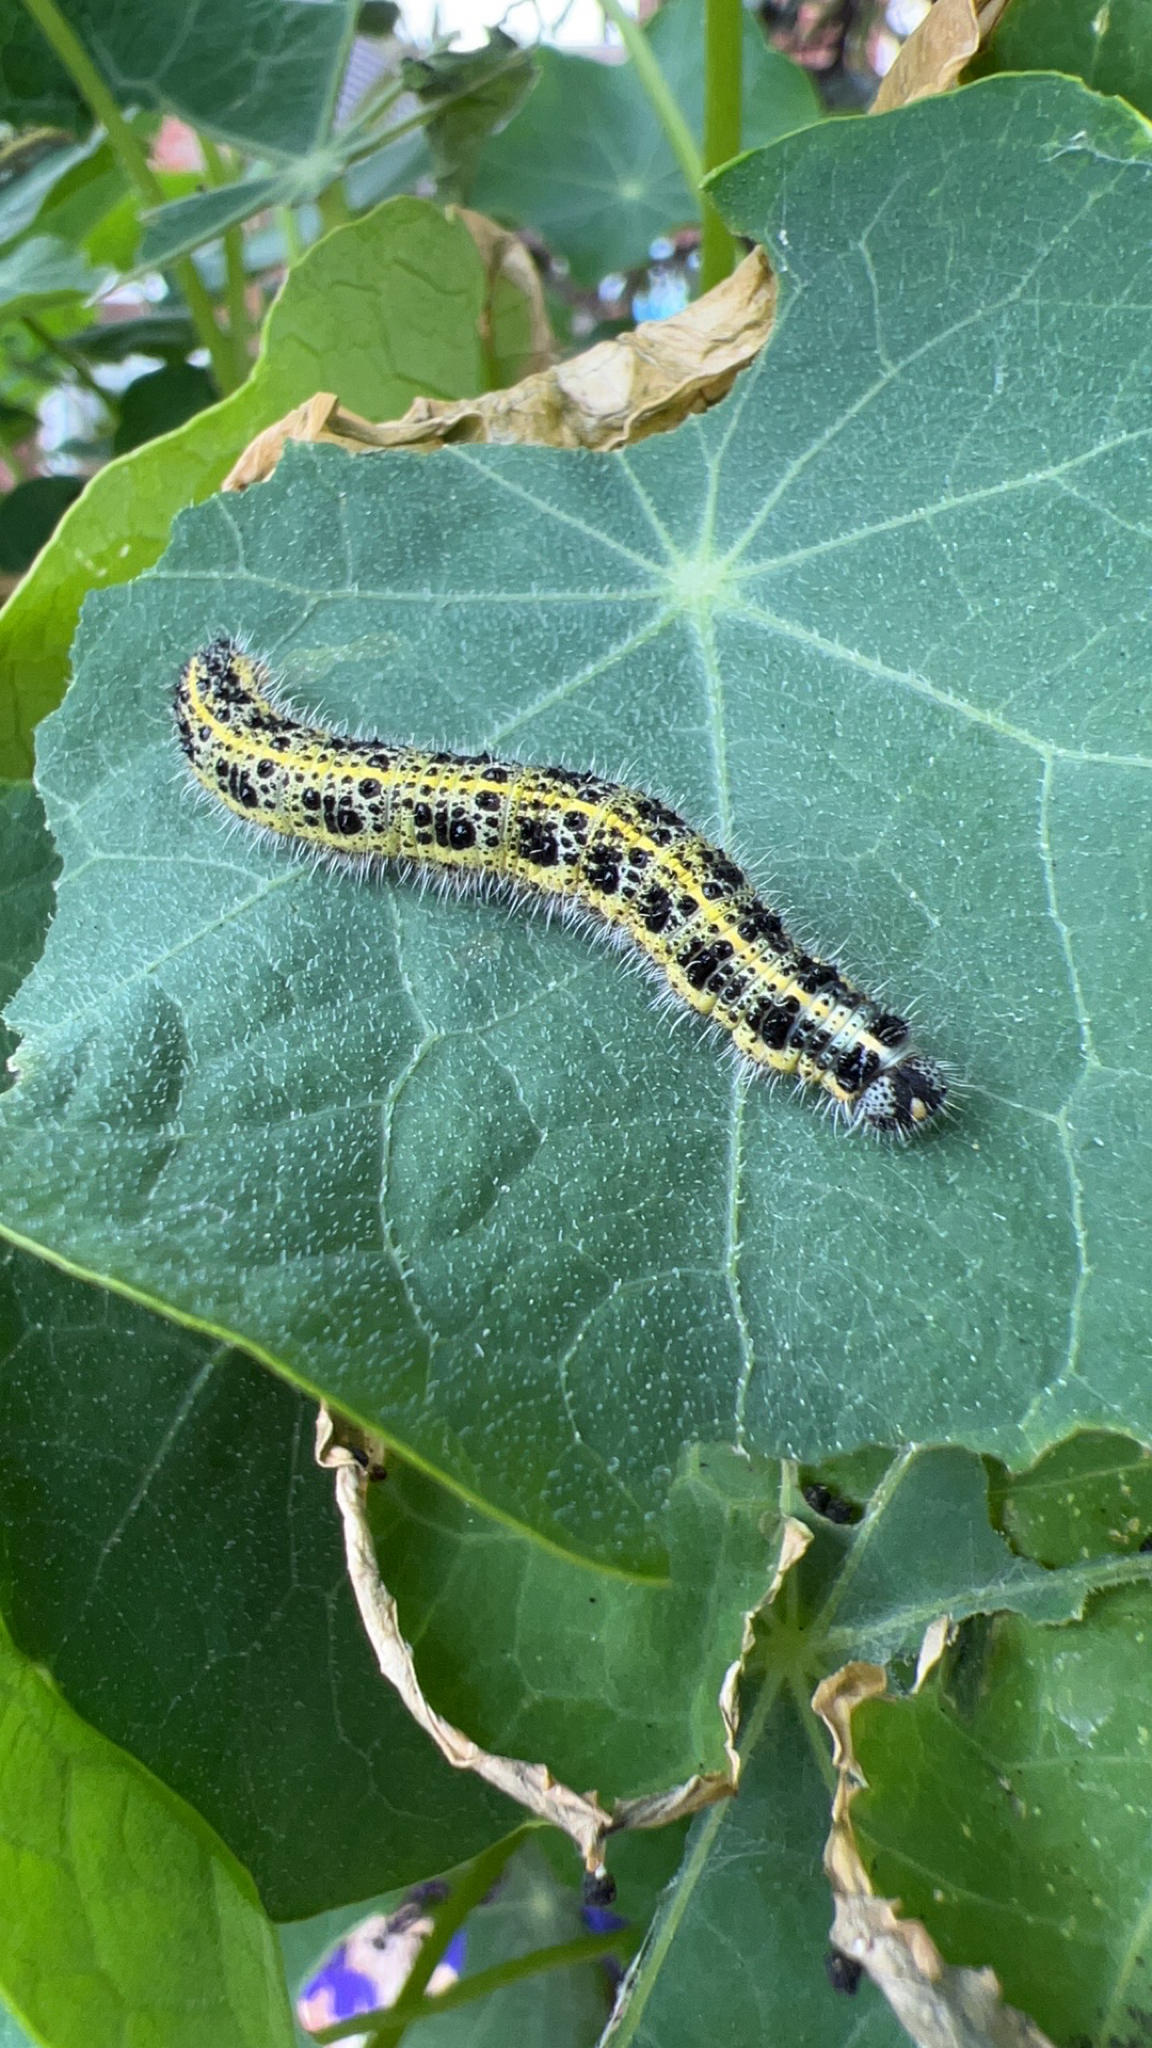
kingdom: Animalia
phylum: Arthropoda
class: Insecta
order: Lepidoptera
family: Pieridae
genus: Pieris
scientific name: Pieris brassicae
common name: Large white
